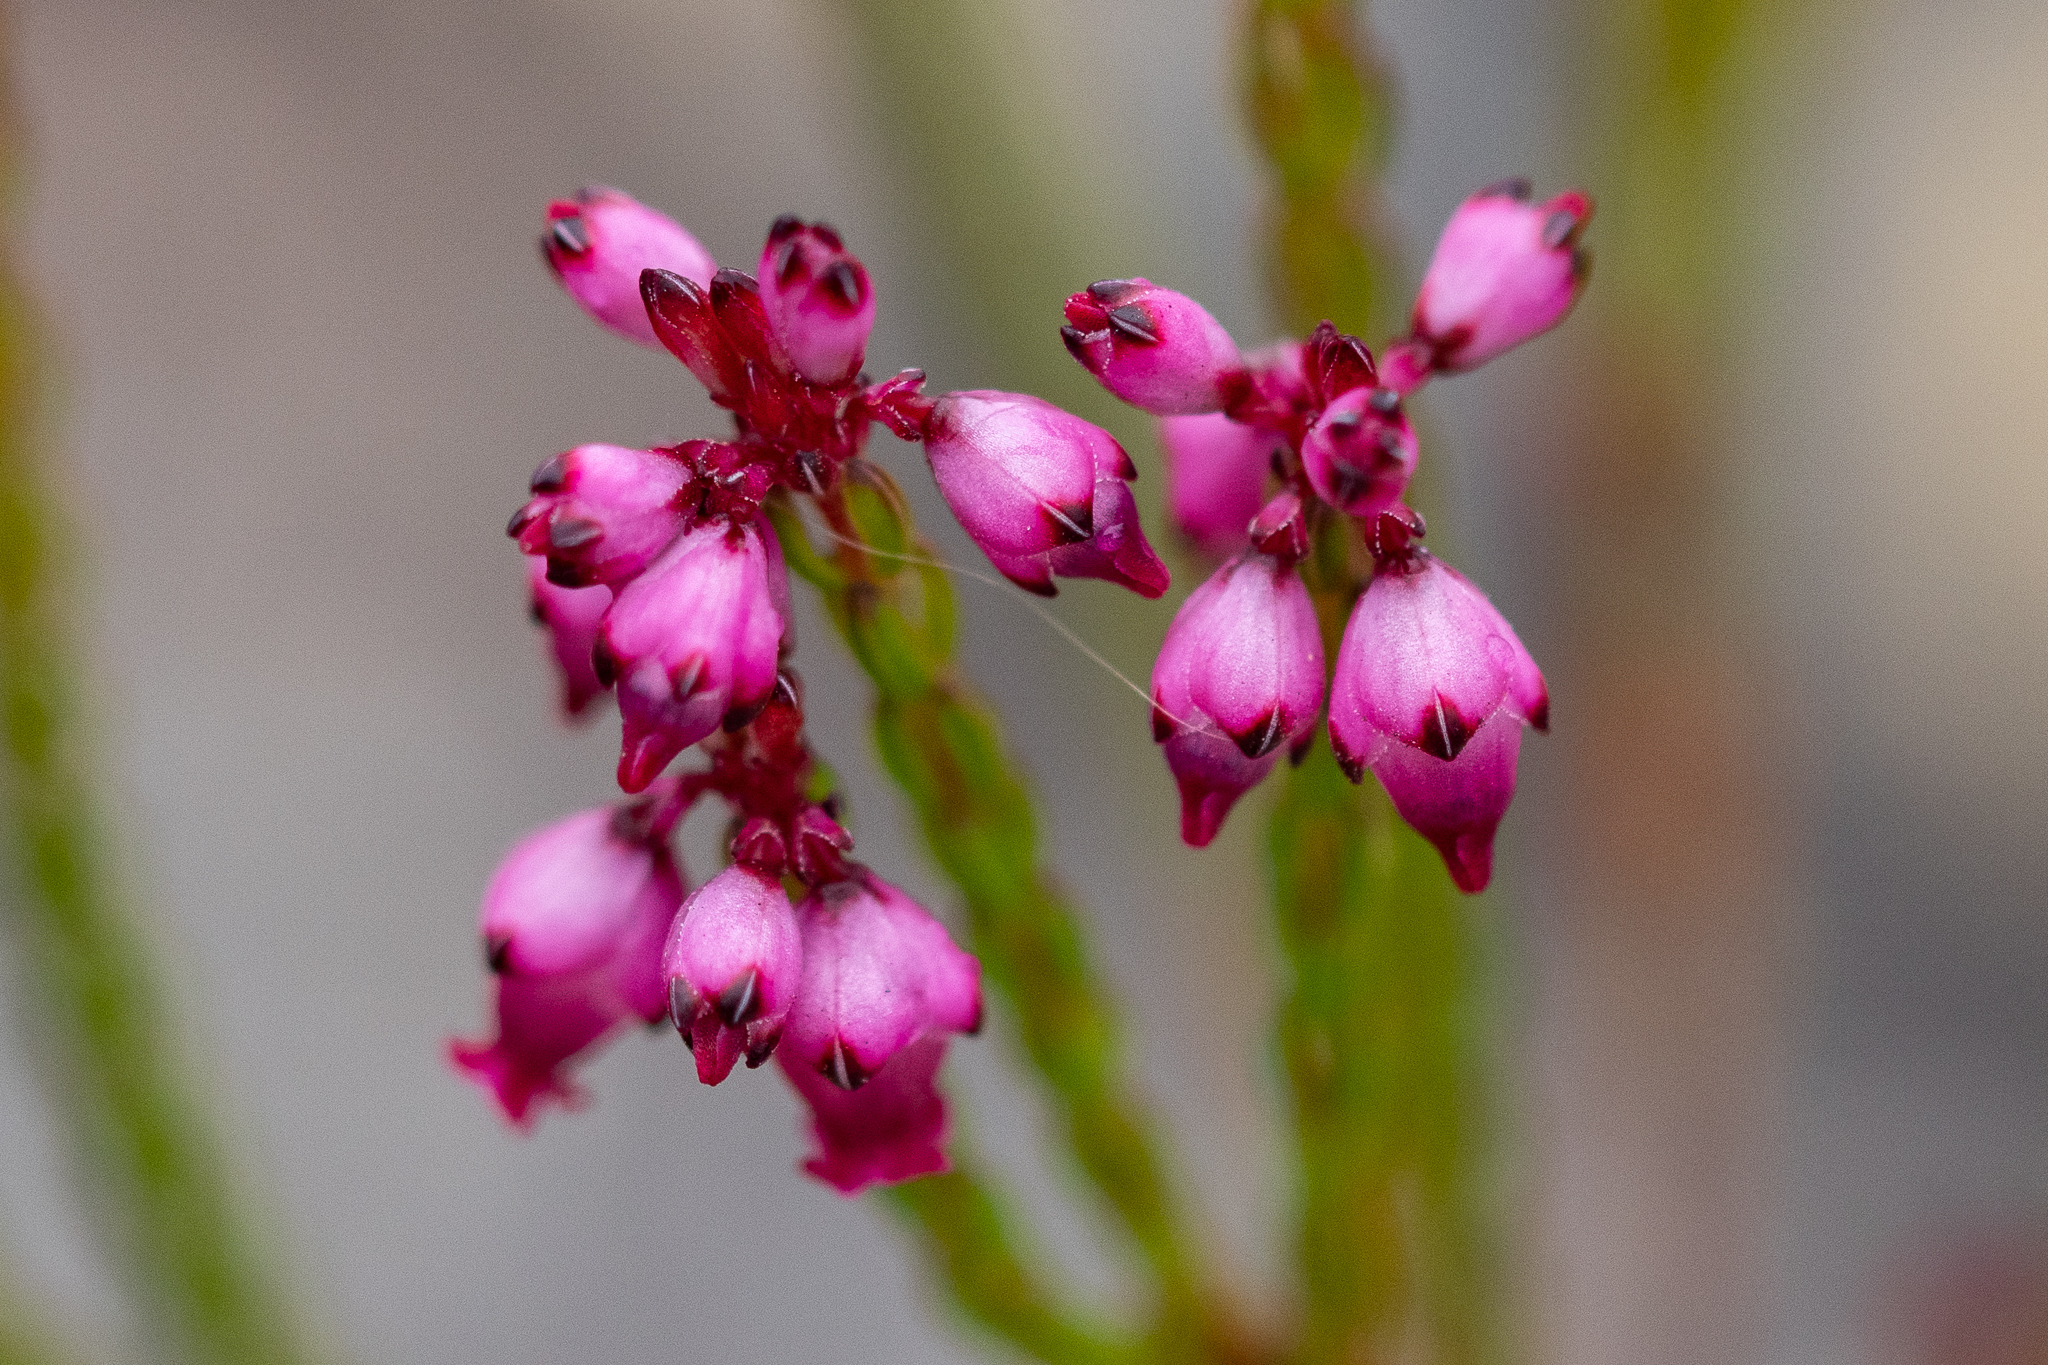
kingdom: Plantae
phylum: Tracheophyta
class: Magnoliopsida
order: Ericales
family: Ericaceae
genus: Erica
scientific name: Erica rhopalantha
